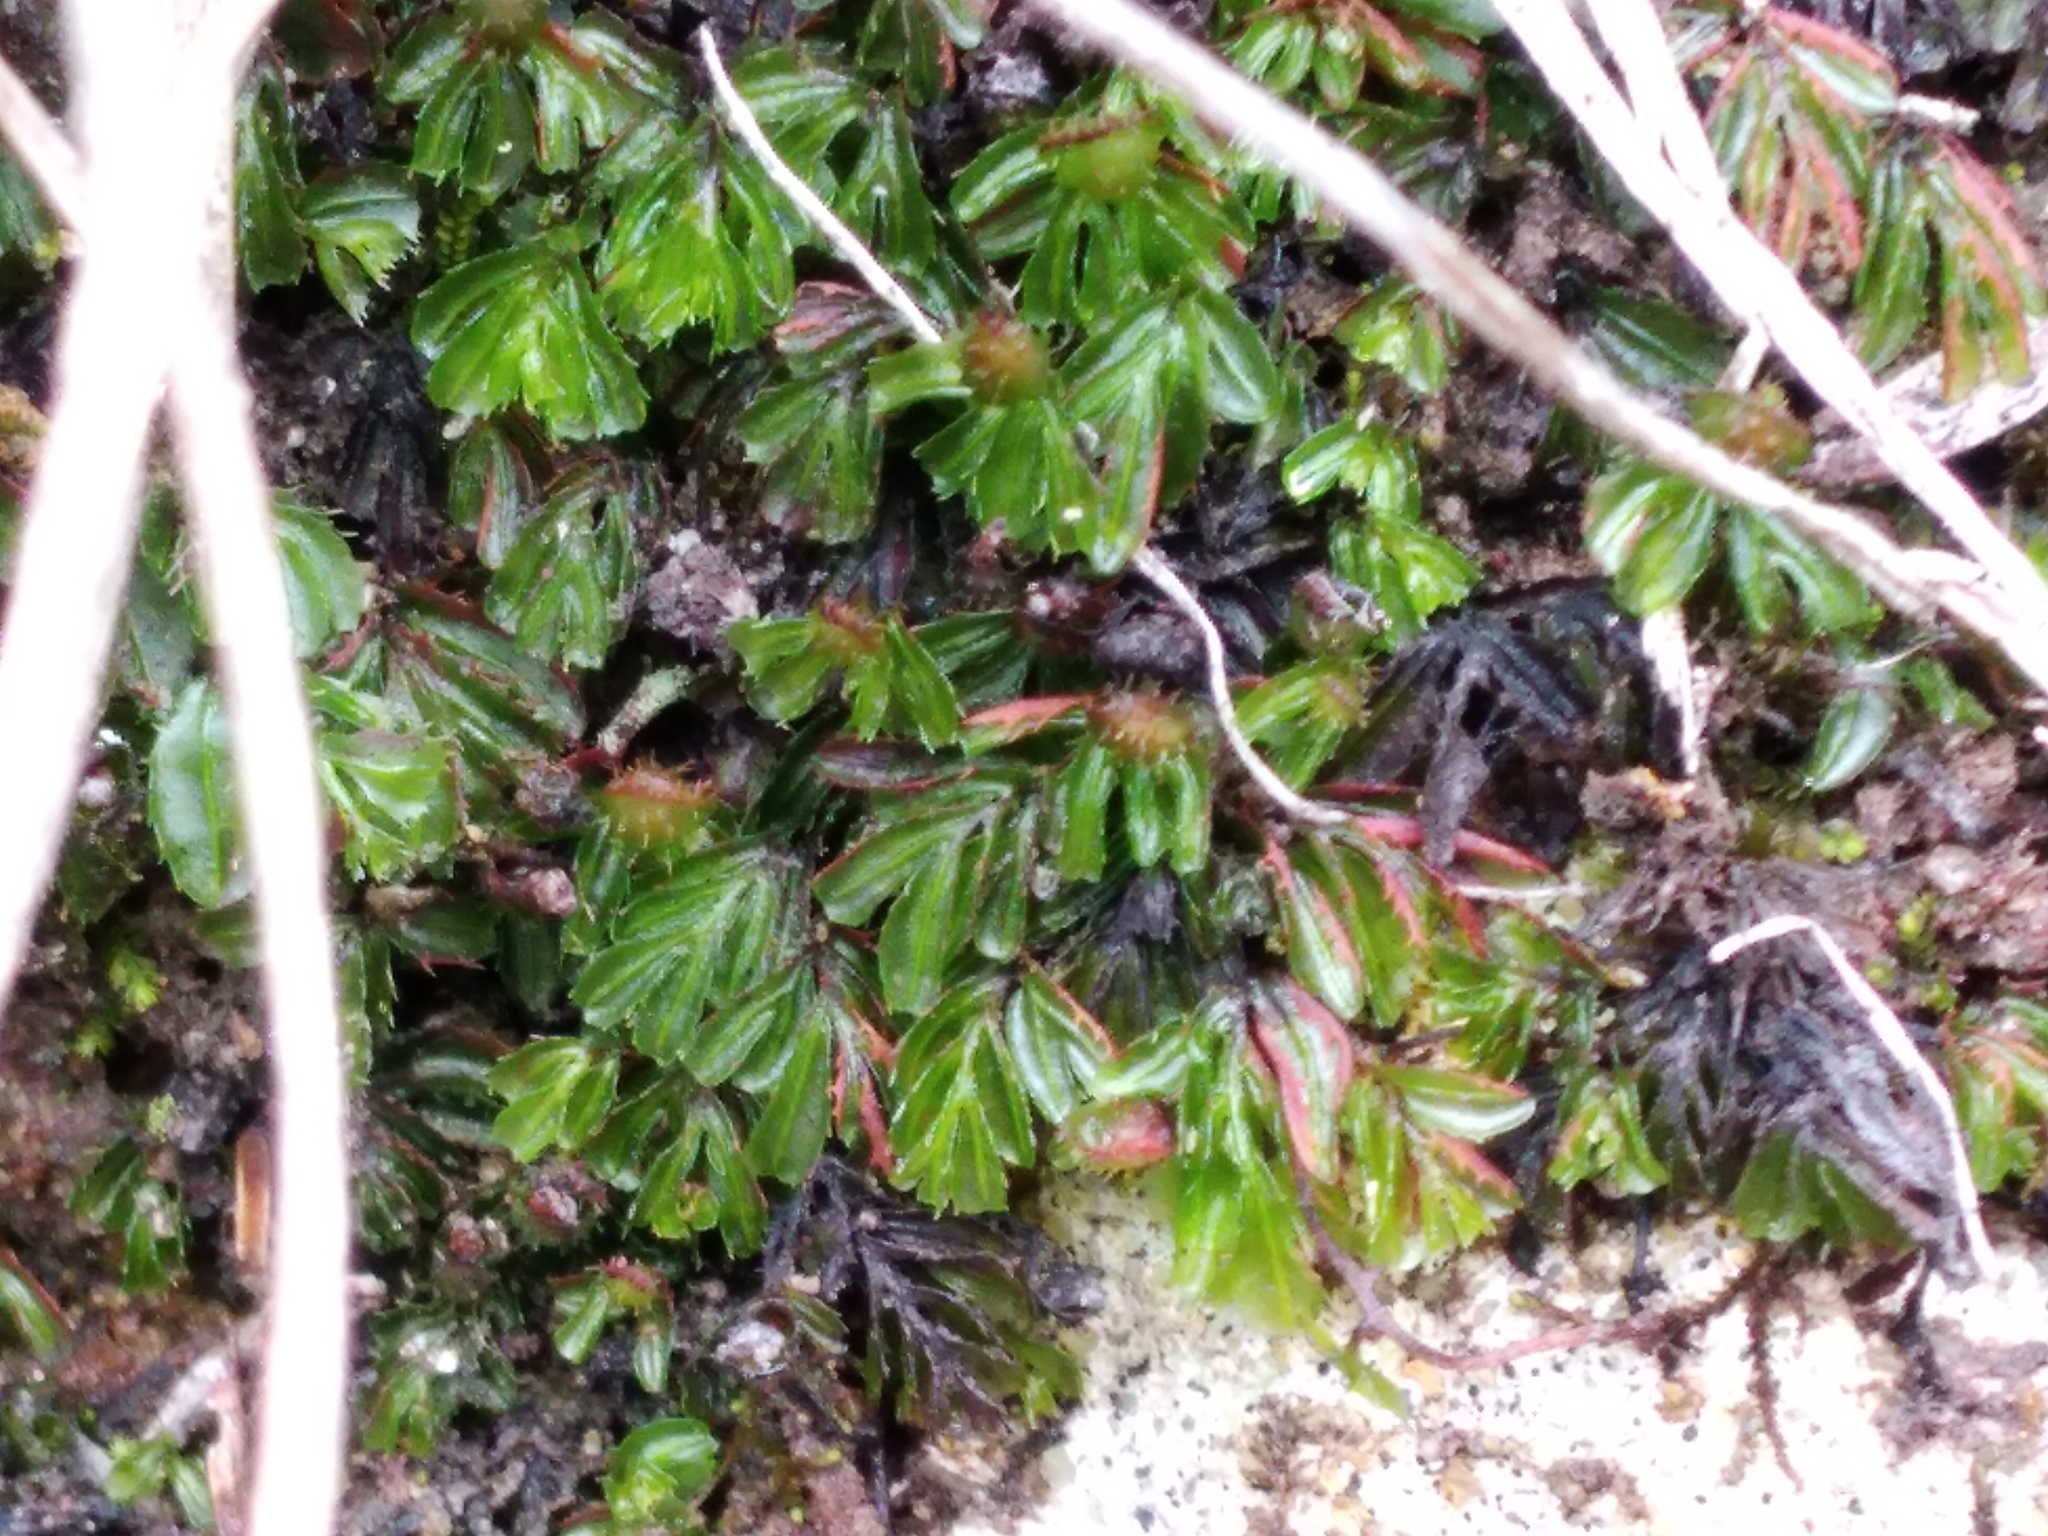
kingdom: Plantae
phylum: Tracheophyta
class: Polypodiopsida
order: Hymenophyllales
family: Hymenophyllaceae
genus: Hymenophyllum
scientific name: Hymenophyllum minimum
